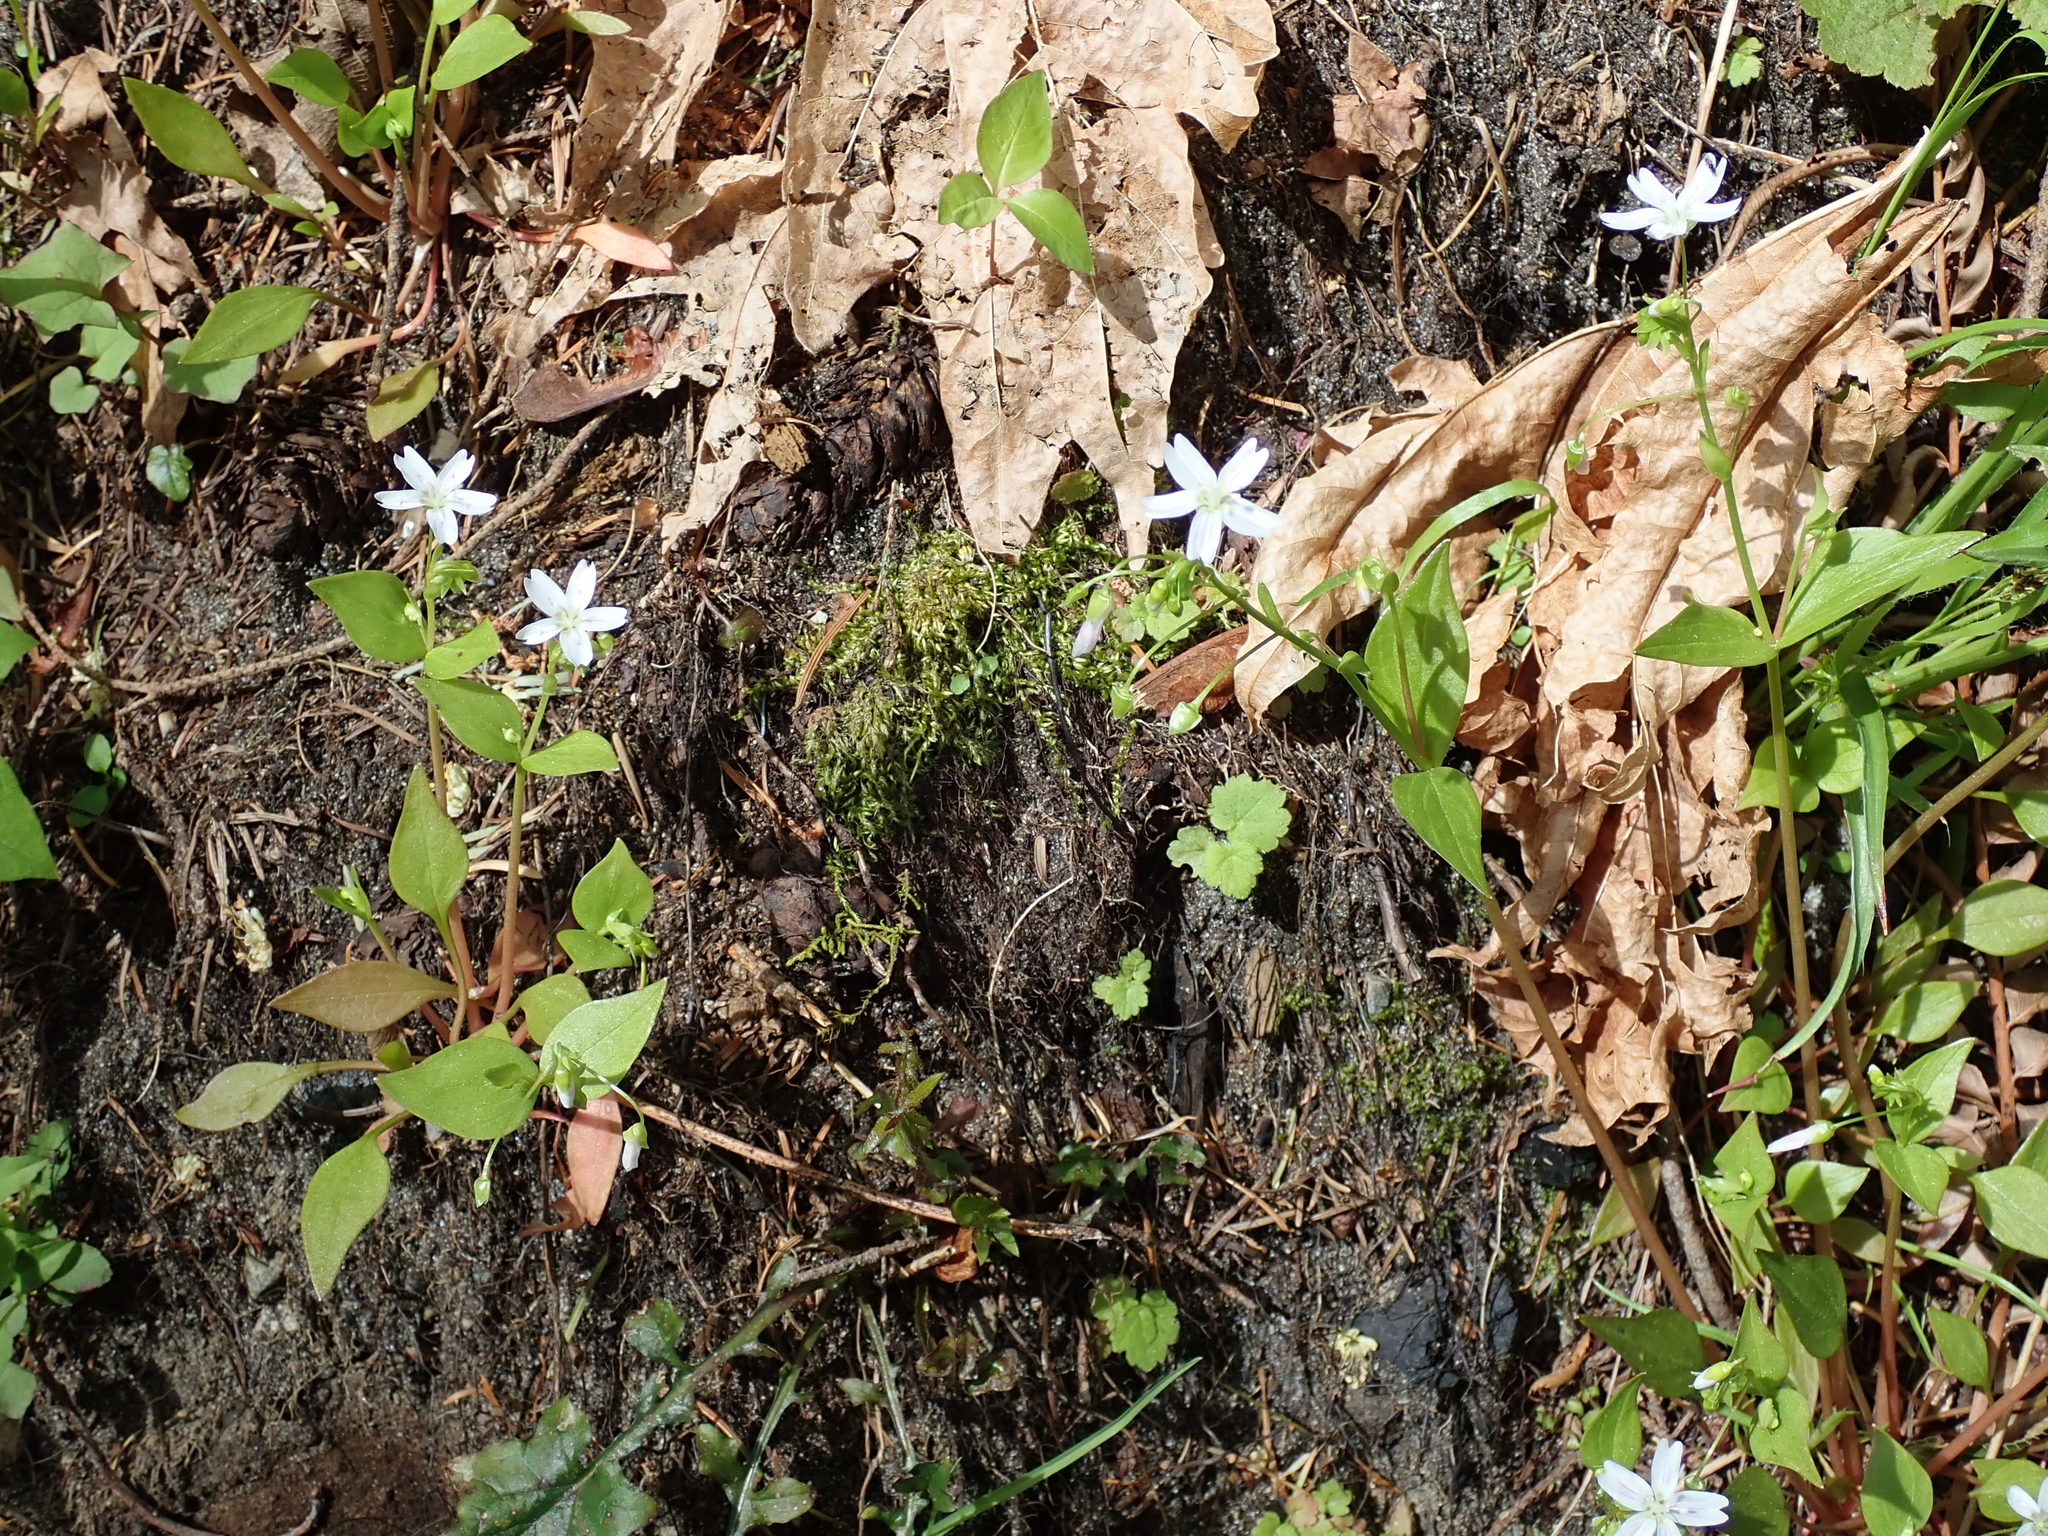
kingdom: Plantae
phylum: Tracheophyta
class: Magnoliopsida
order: Caryophyllales
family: Montiaceae
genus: Claytonia
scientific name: Claytonia sibirica
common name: Pink purslane
